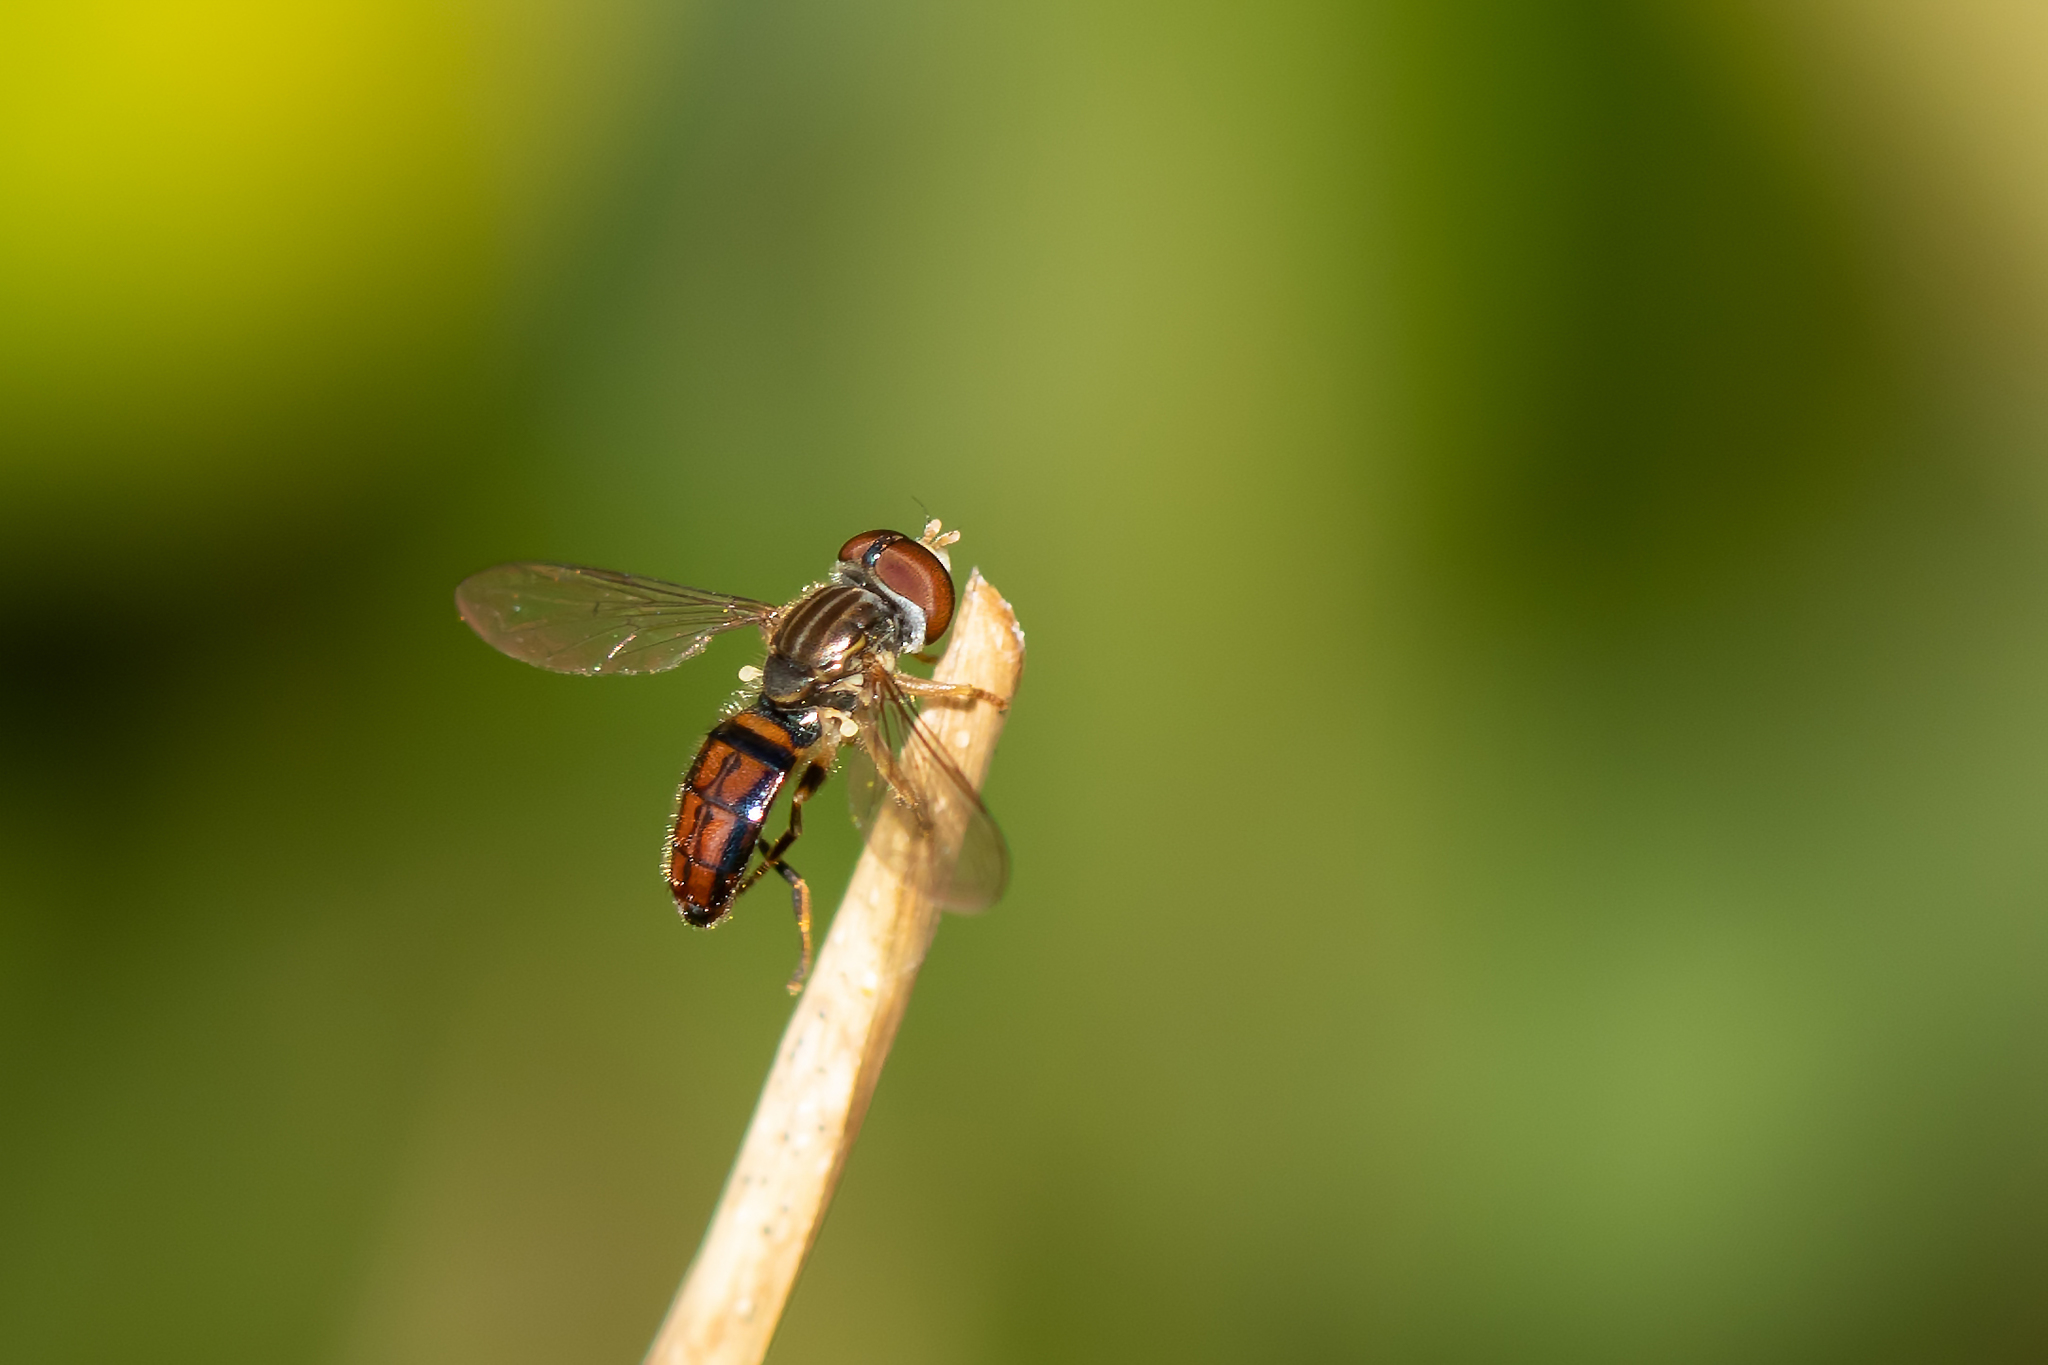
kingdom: Animalia
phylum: Arthropoda
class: Insecta
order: Diptera
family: Syrphidae
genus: Toxomerus
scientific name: Toxomerus boscii
